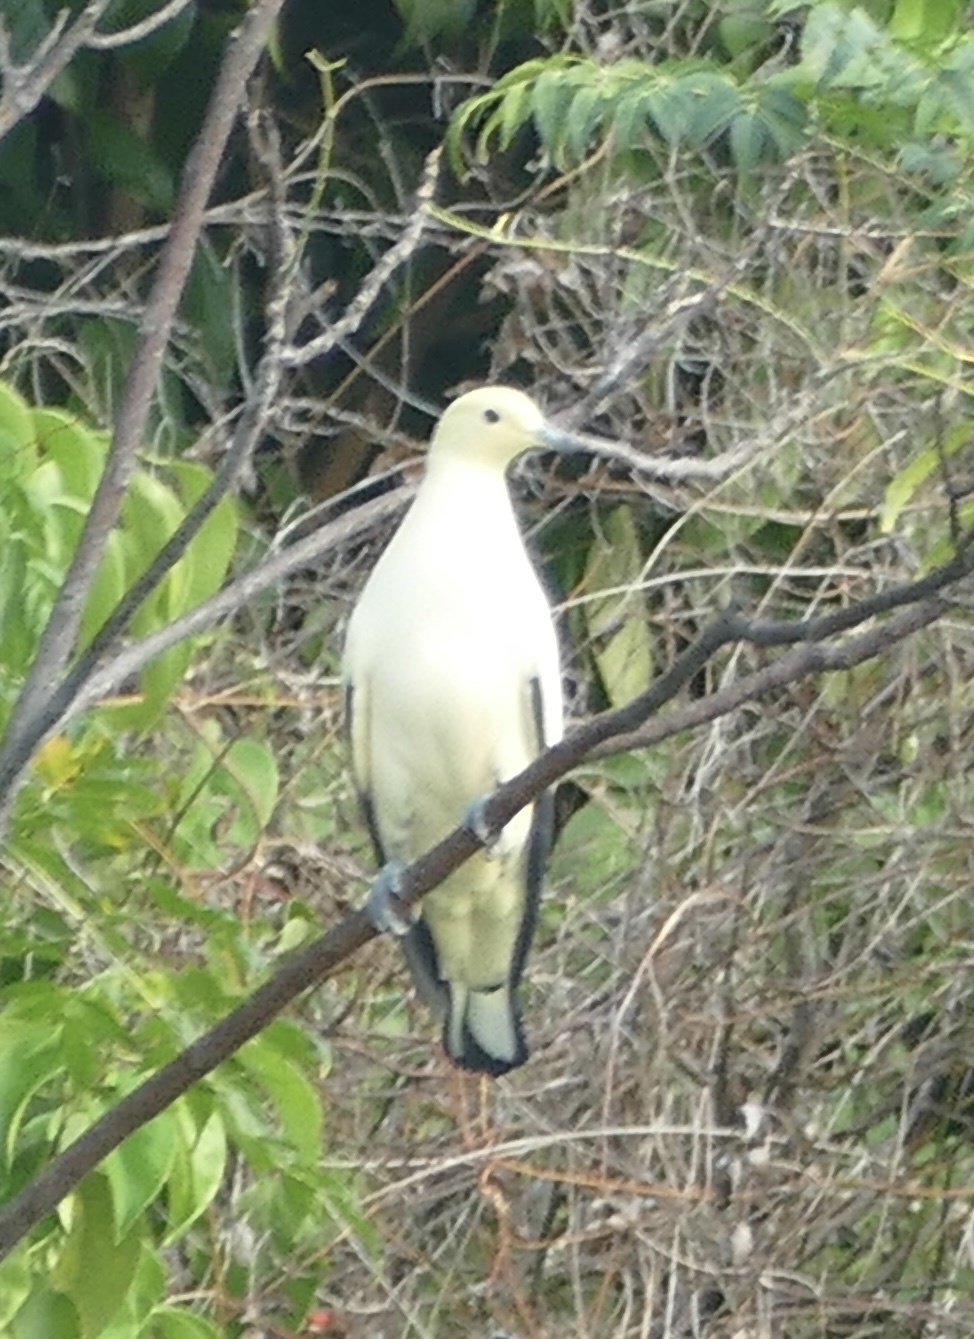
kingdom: Animalia
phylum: Chordata
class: Aves
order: Columbiformes
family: Columbidae
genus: Ducula
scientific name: Ducula bicolor
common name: Pied imperial pigeon
